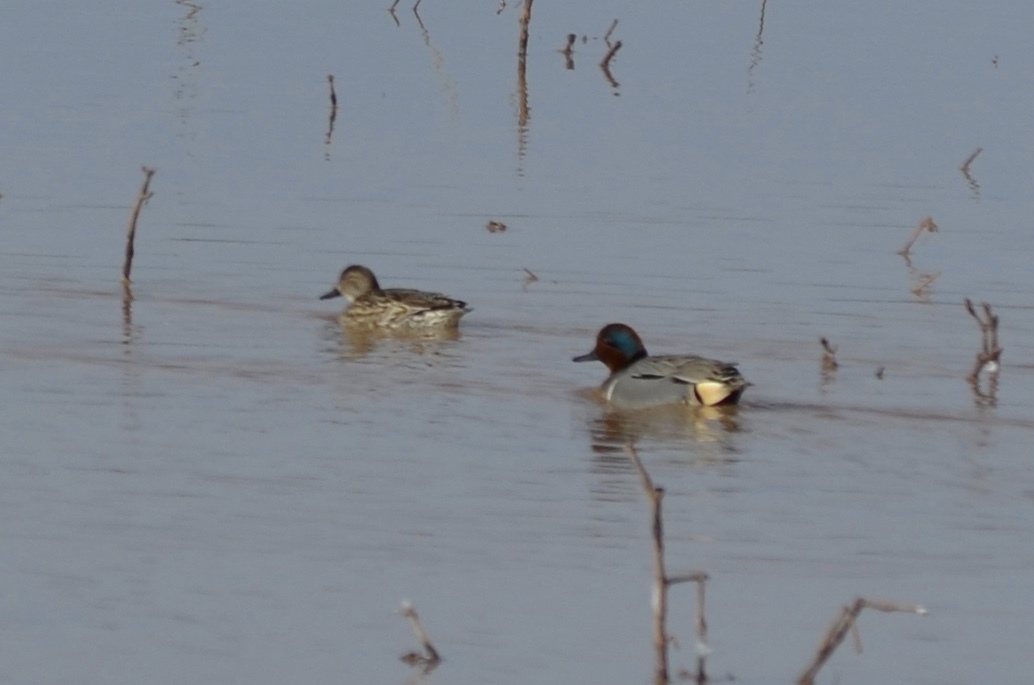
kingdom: Animalia
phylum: Chordata
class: Aves
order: Anseriformes
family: Anatidae
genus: Anas
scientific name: Anas crecca
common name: Eurasian teal
